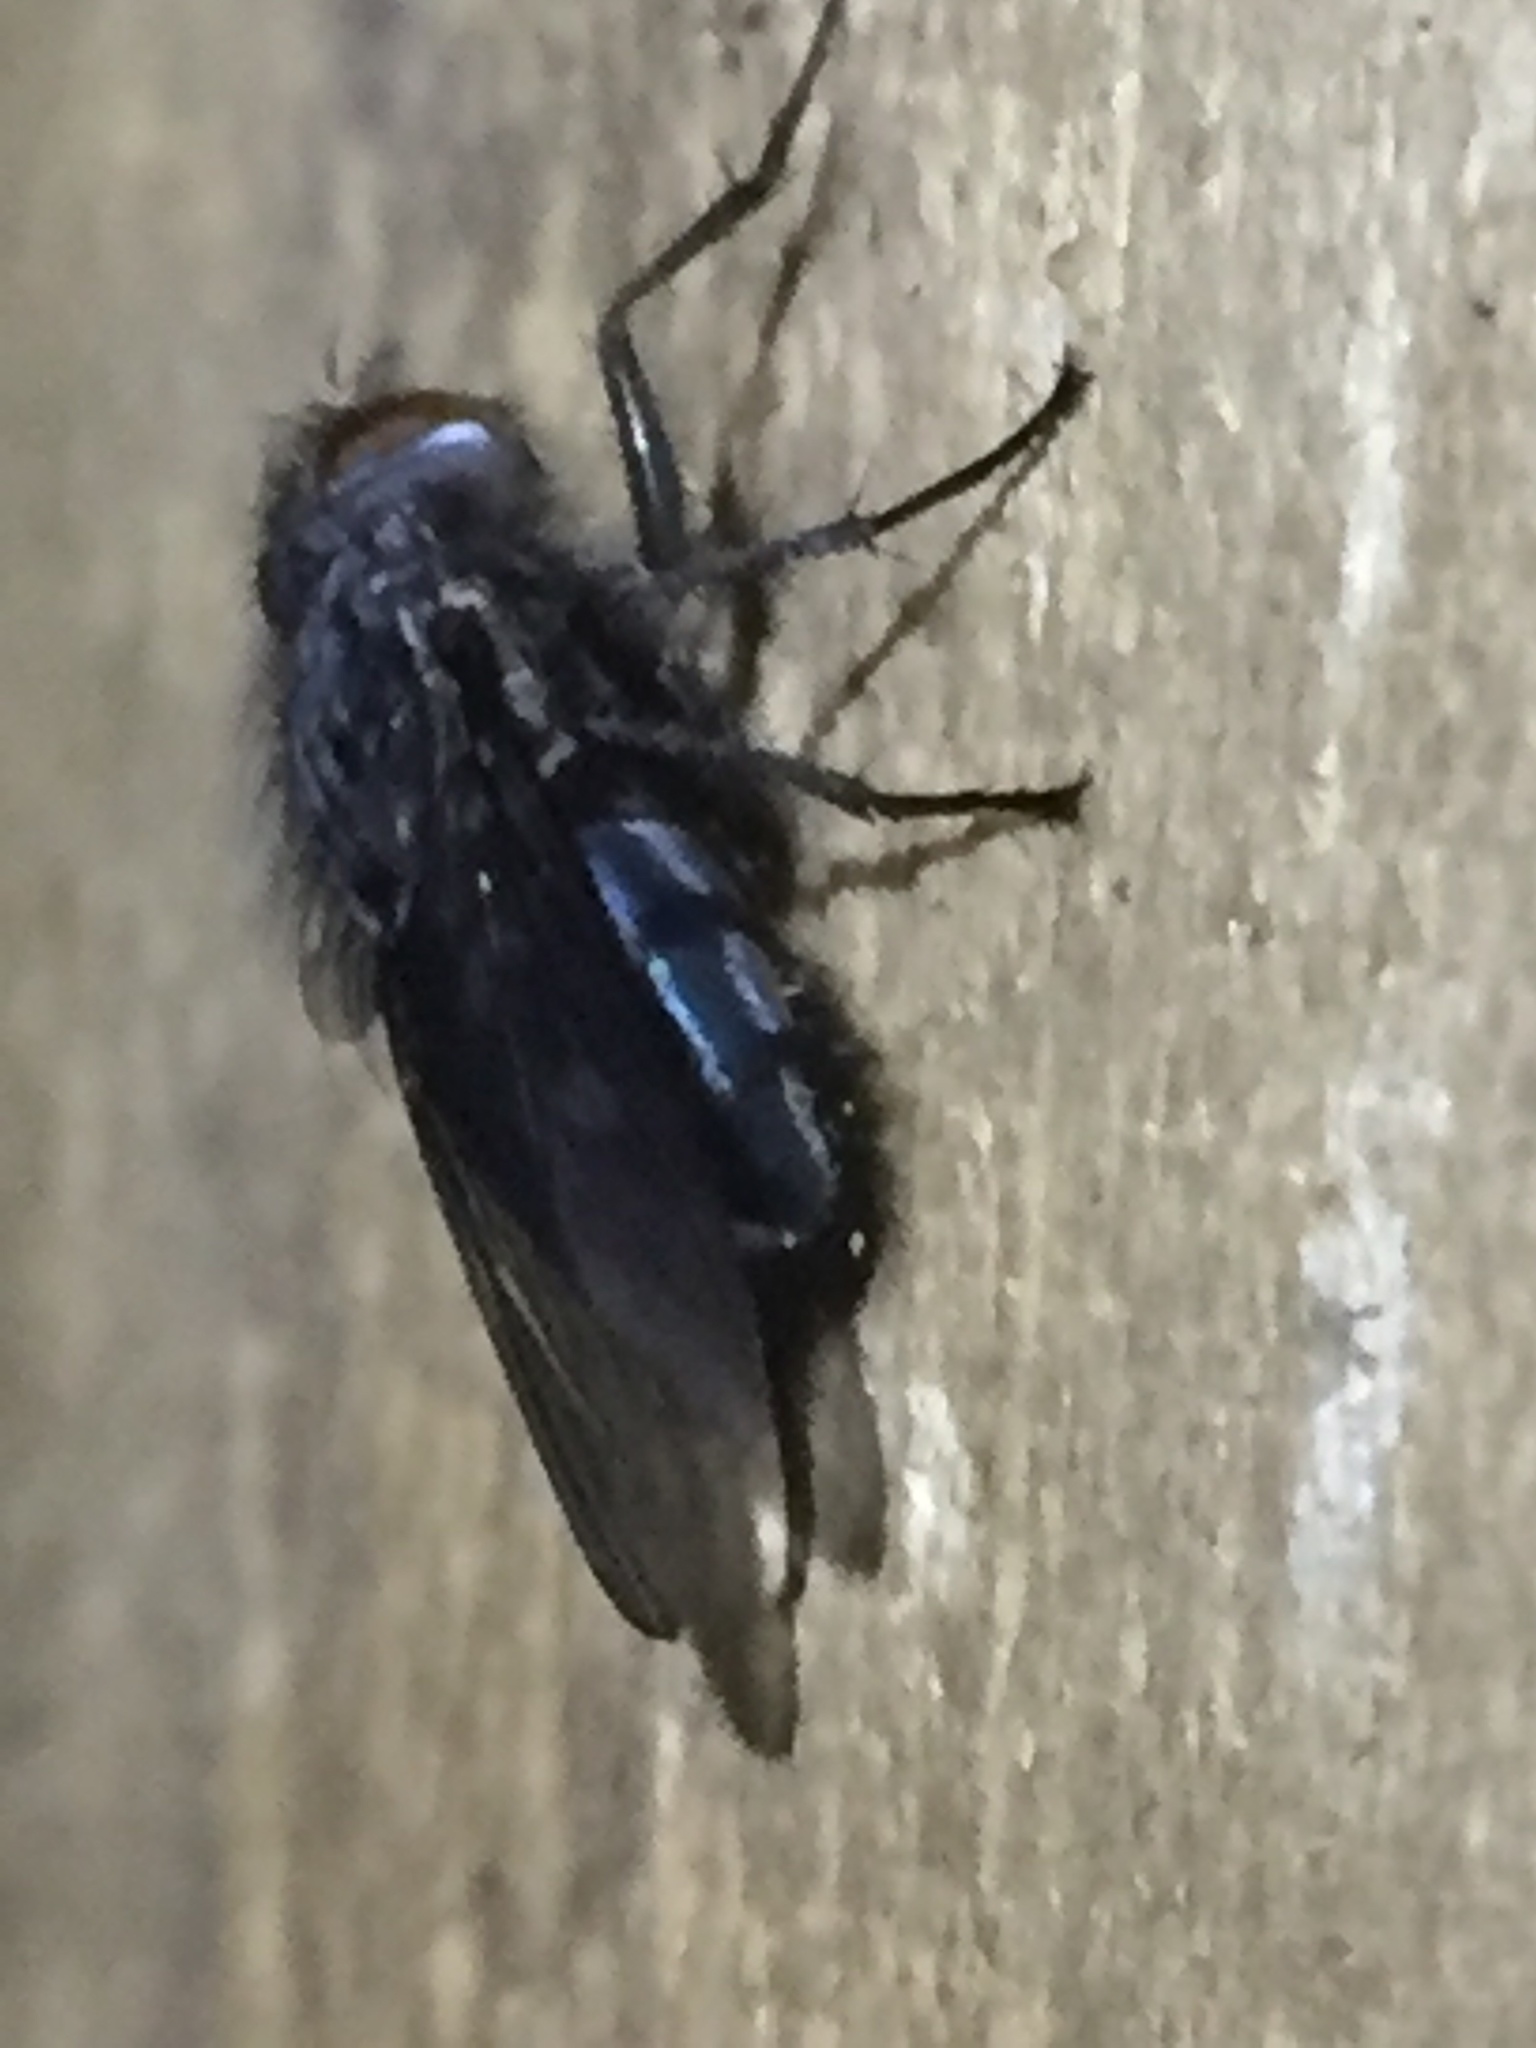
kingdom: Animalia
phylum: Arthropoda
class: Insecta
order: Diptera
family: Calliphoridae
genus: Calliphora
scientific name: Calliphora vicina
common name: Common blow flie
